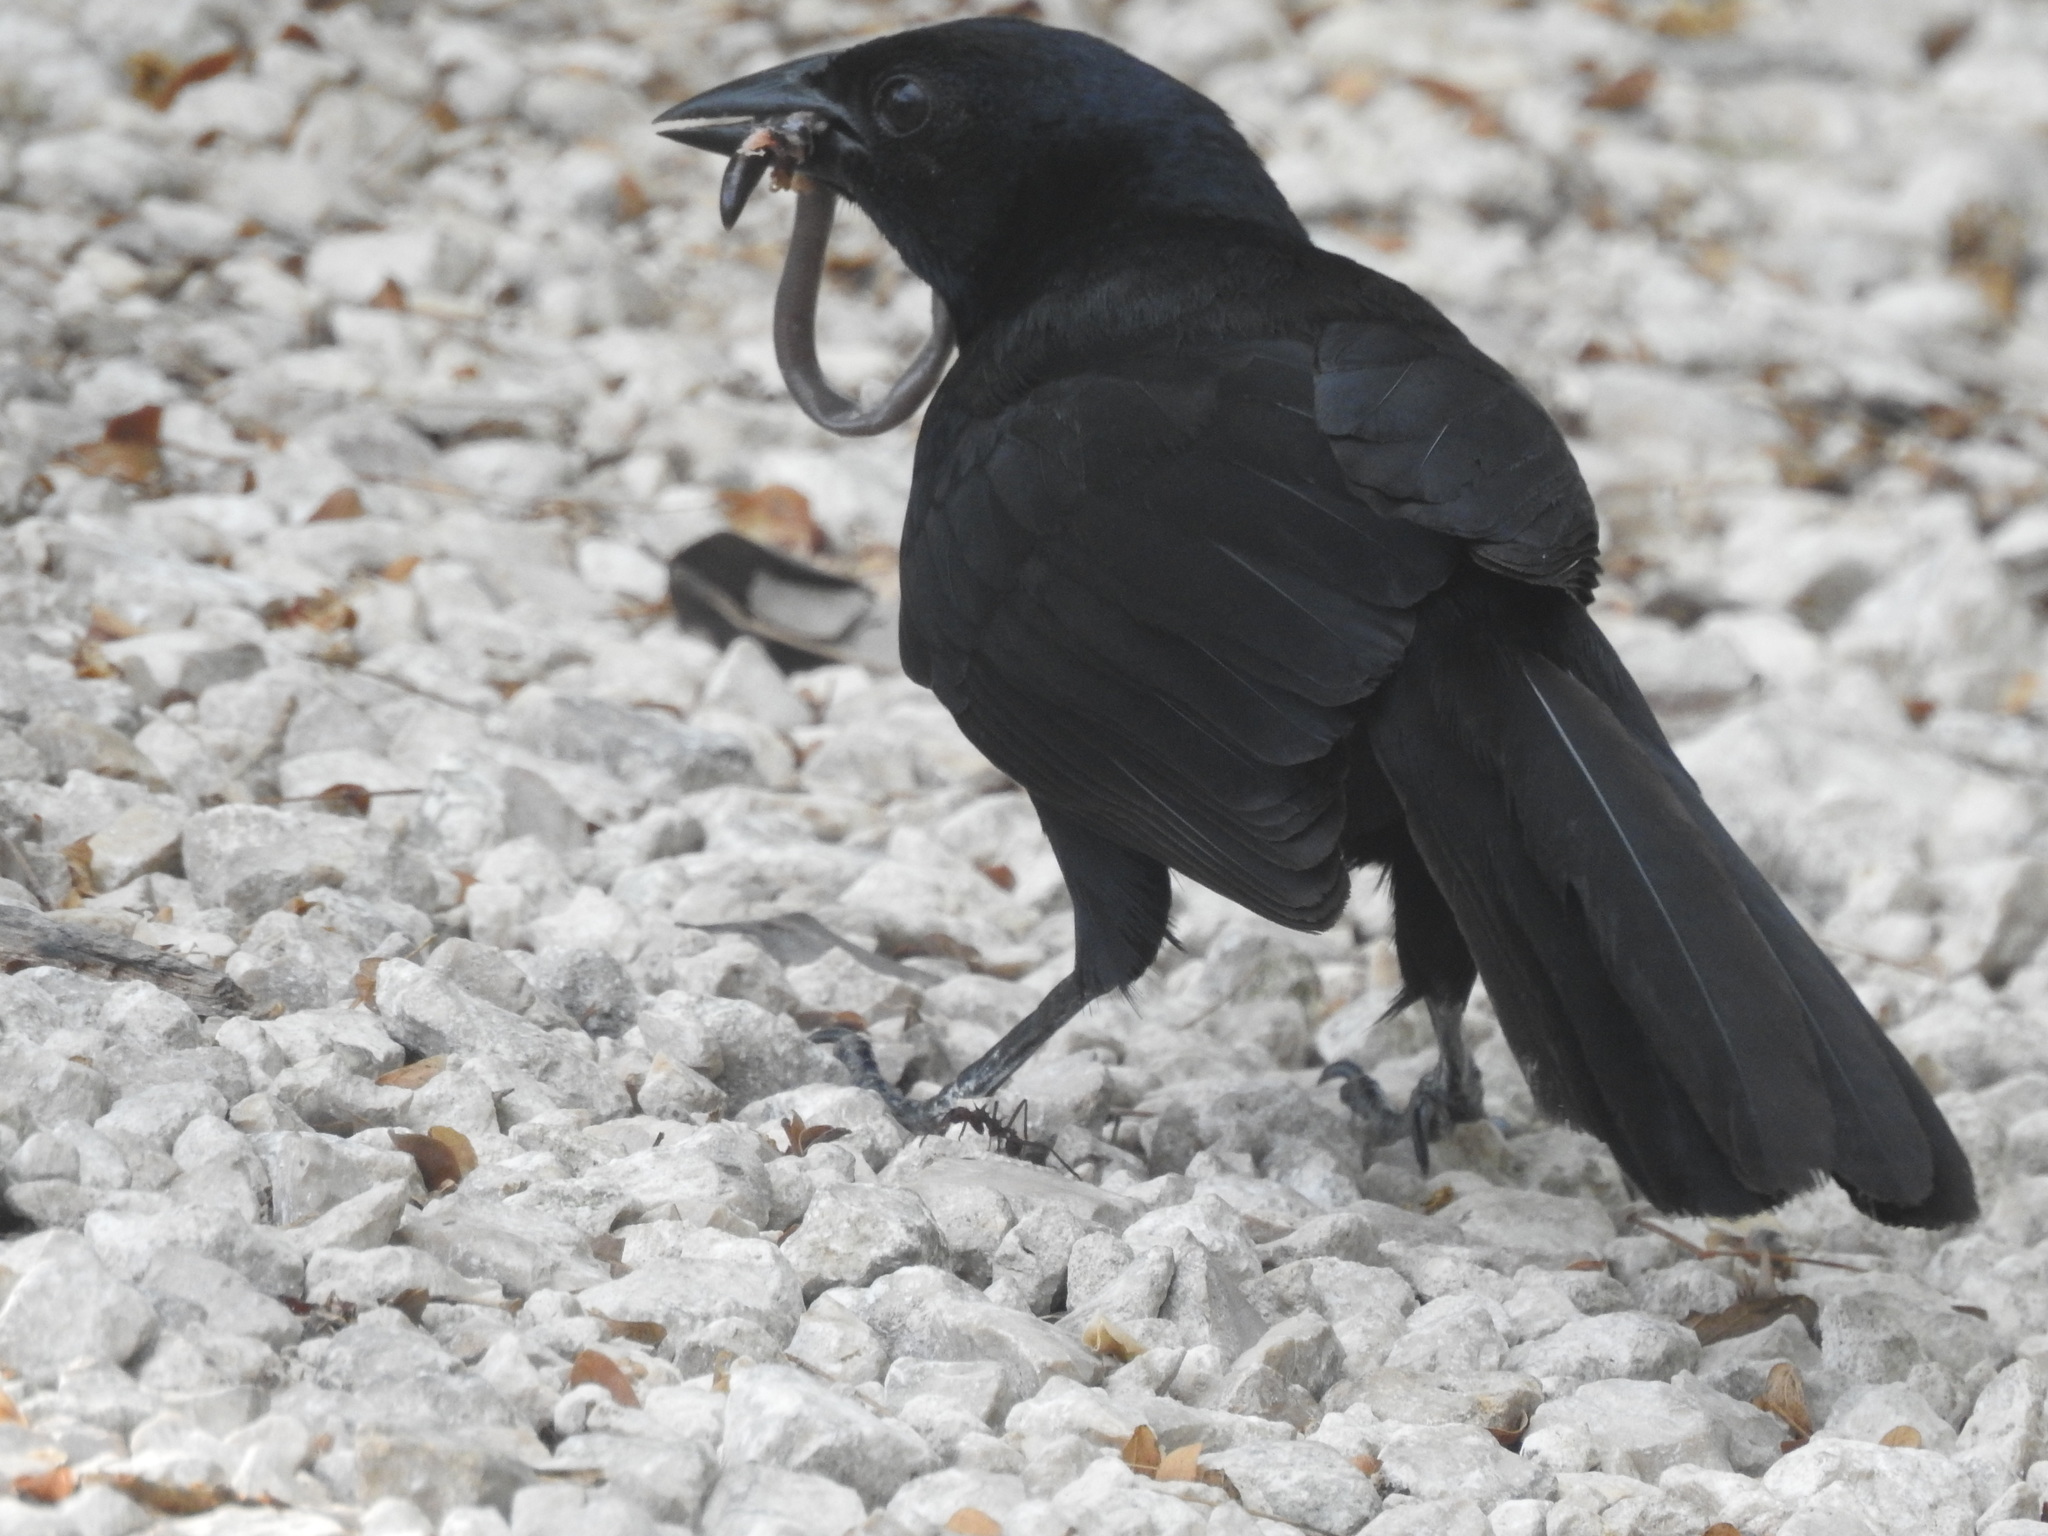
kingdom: Animalia
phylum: Chordata
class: Aves
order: Passeriformes
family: Icteridae
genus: Dives
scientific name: Dives dives
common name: Melodious blackbird
